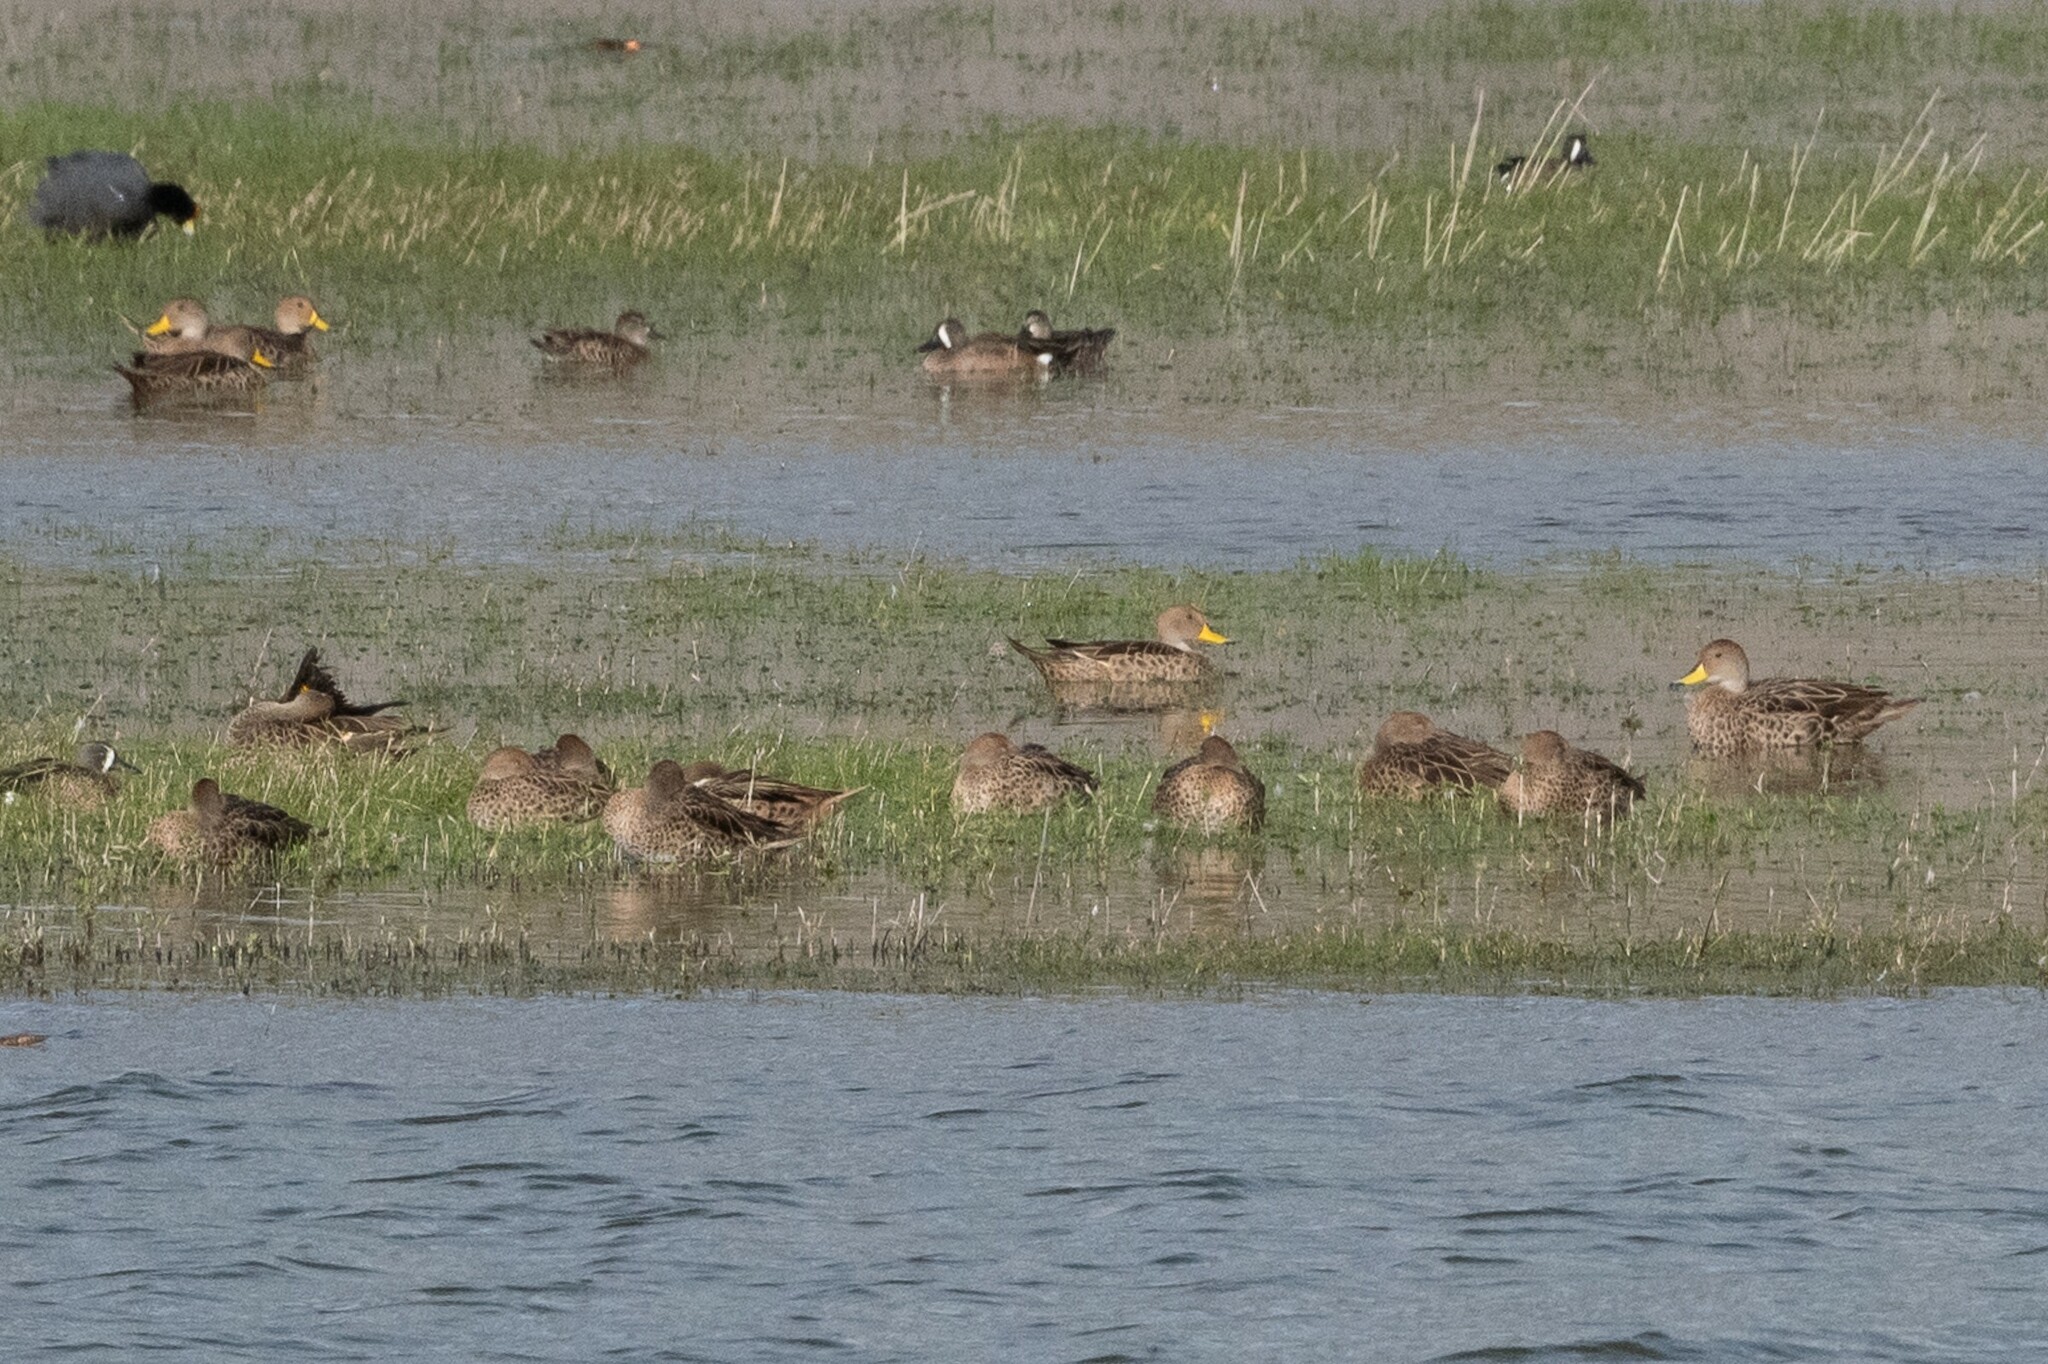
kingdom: Animalia
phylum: Chordata
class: Aves
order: Anseriformes
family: Anatidae
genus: Anas
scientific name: Anas georgica
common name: Yellow-billed pintail
